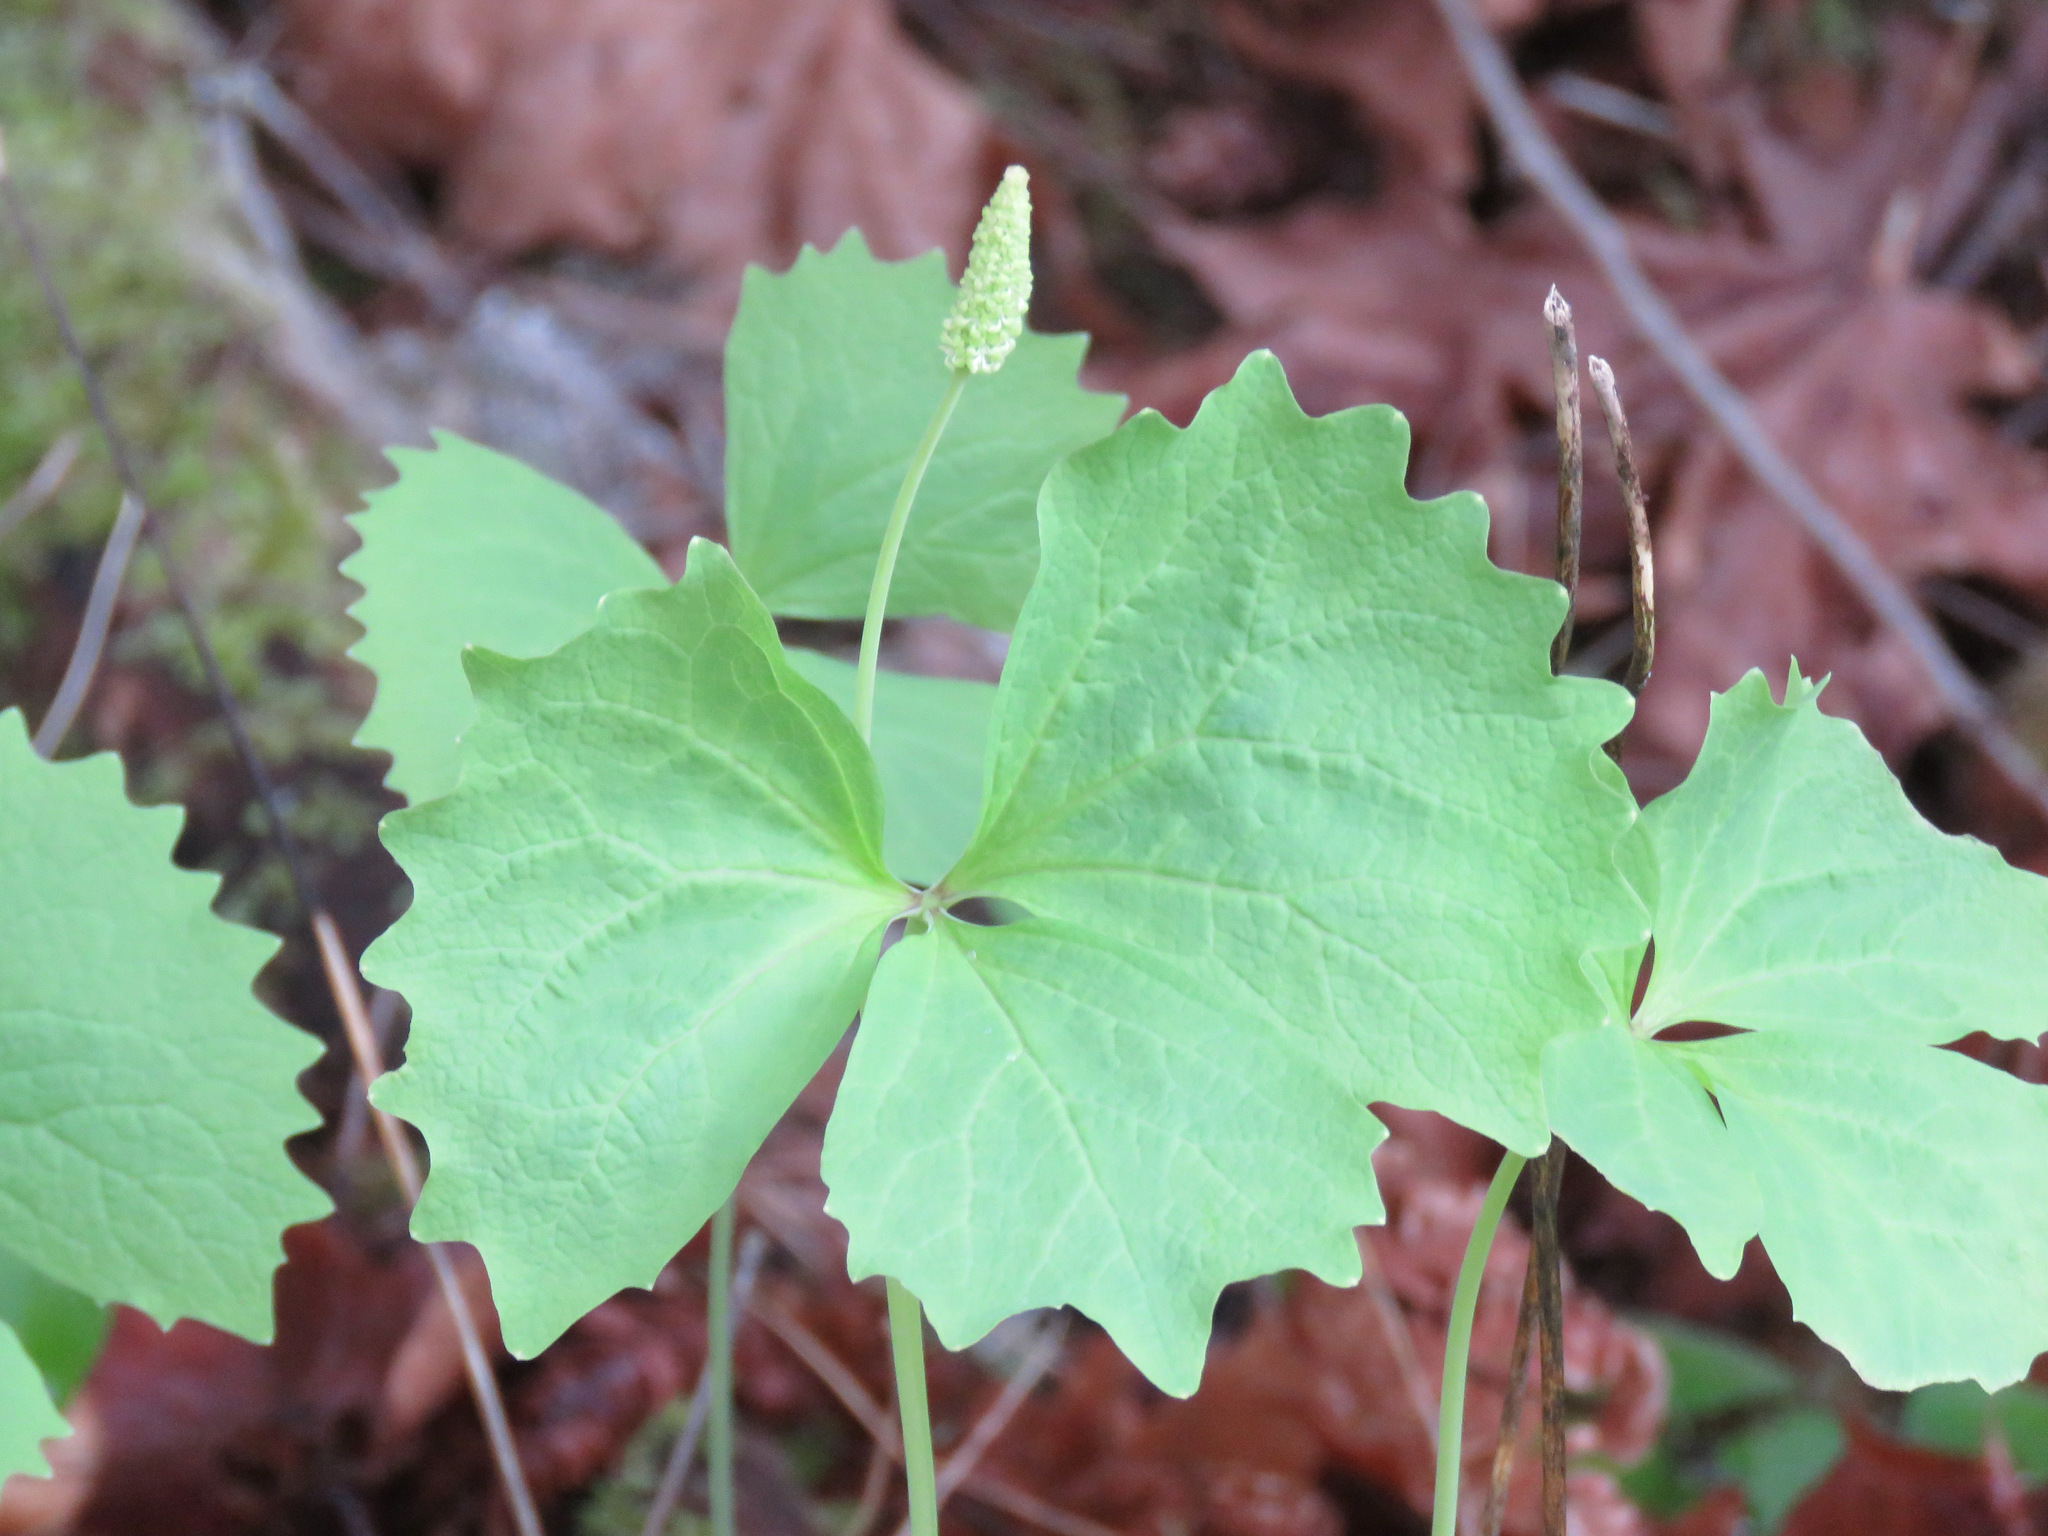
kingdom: Plantae
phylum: Tracheophyta
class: Magnoliopsida
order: Ranunculales
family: Berberidaceae
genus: Achlys
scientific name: Achlys triphylla
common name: Vanilla-leaf
